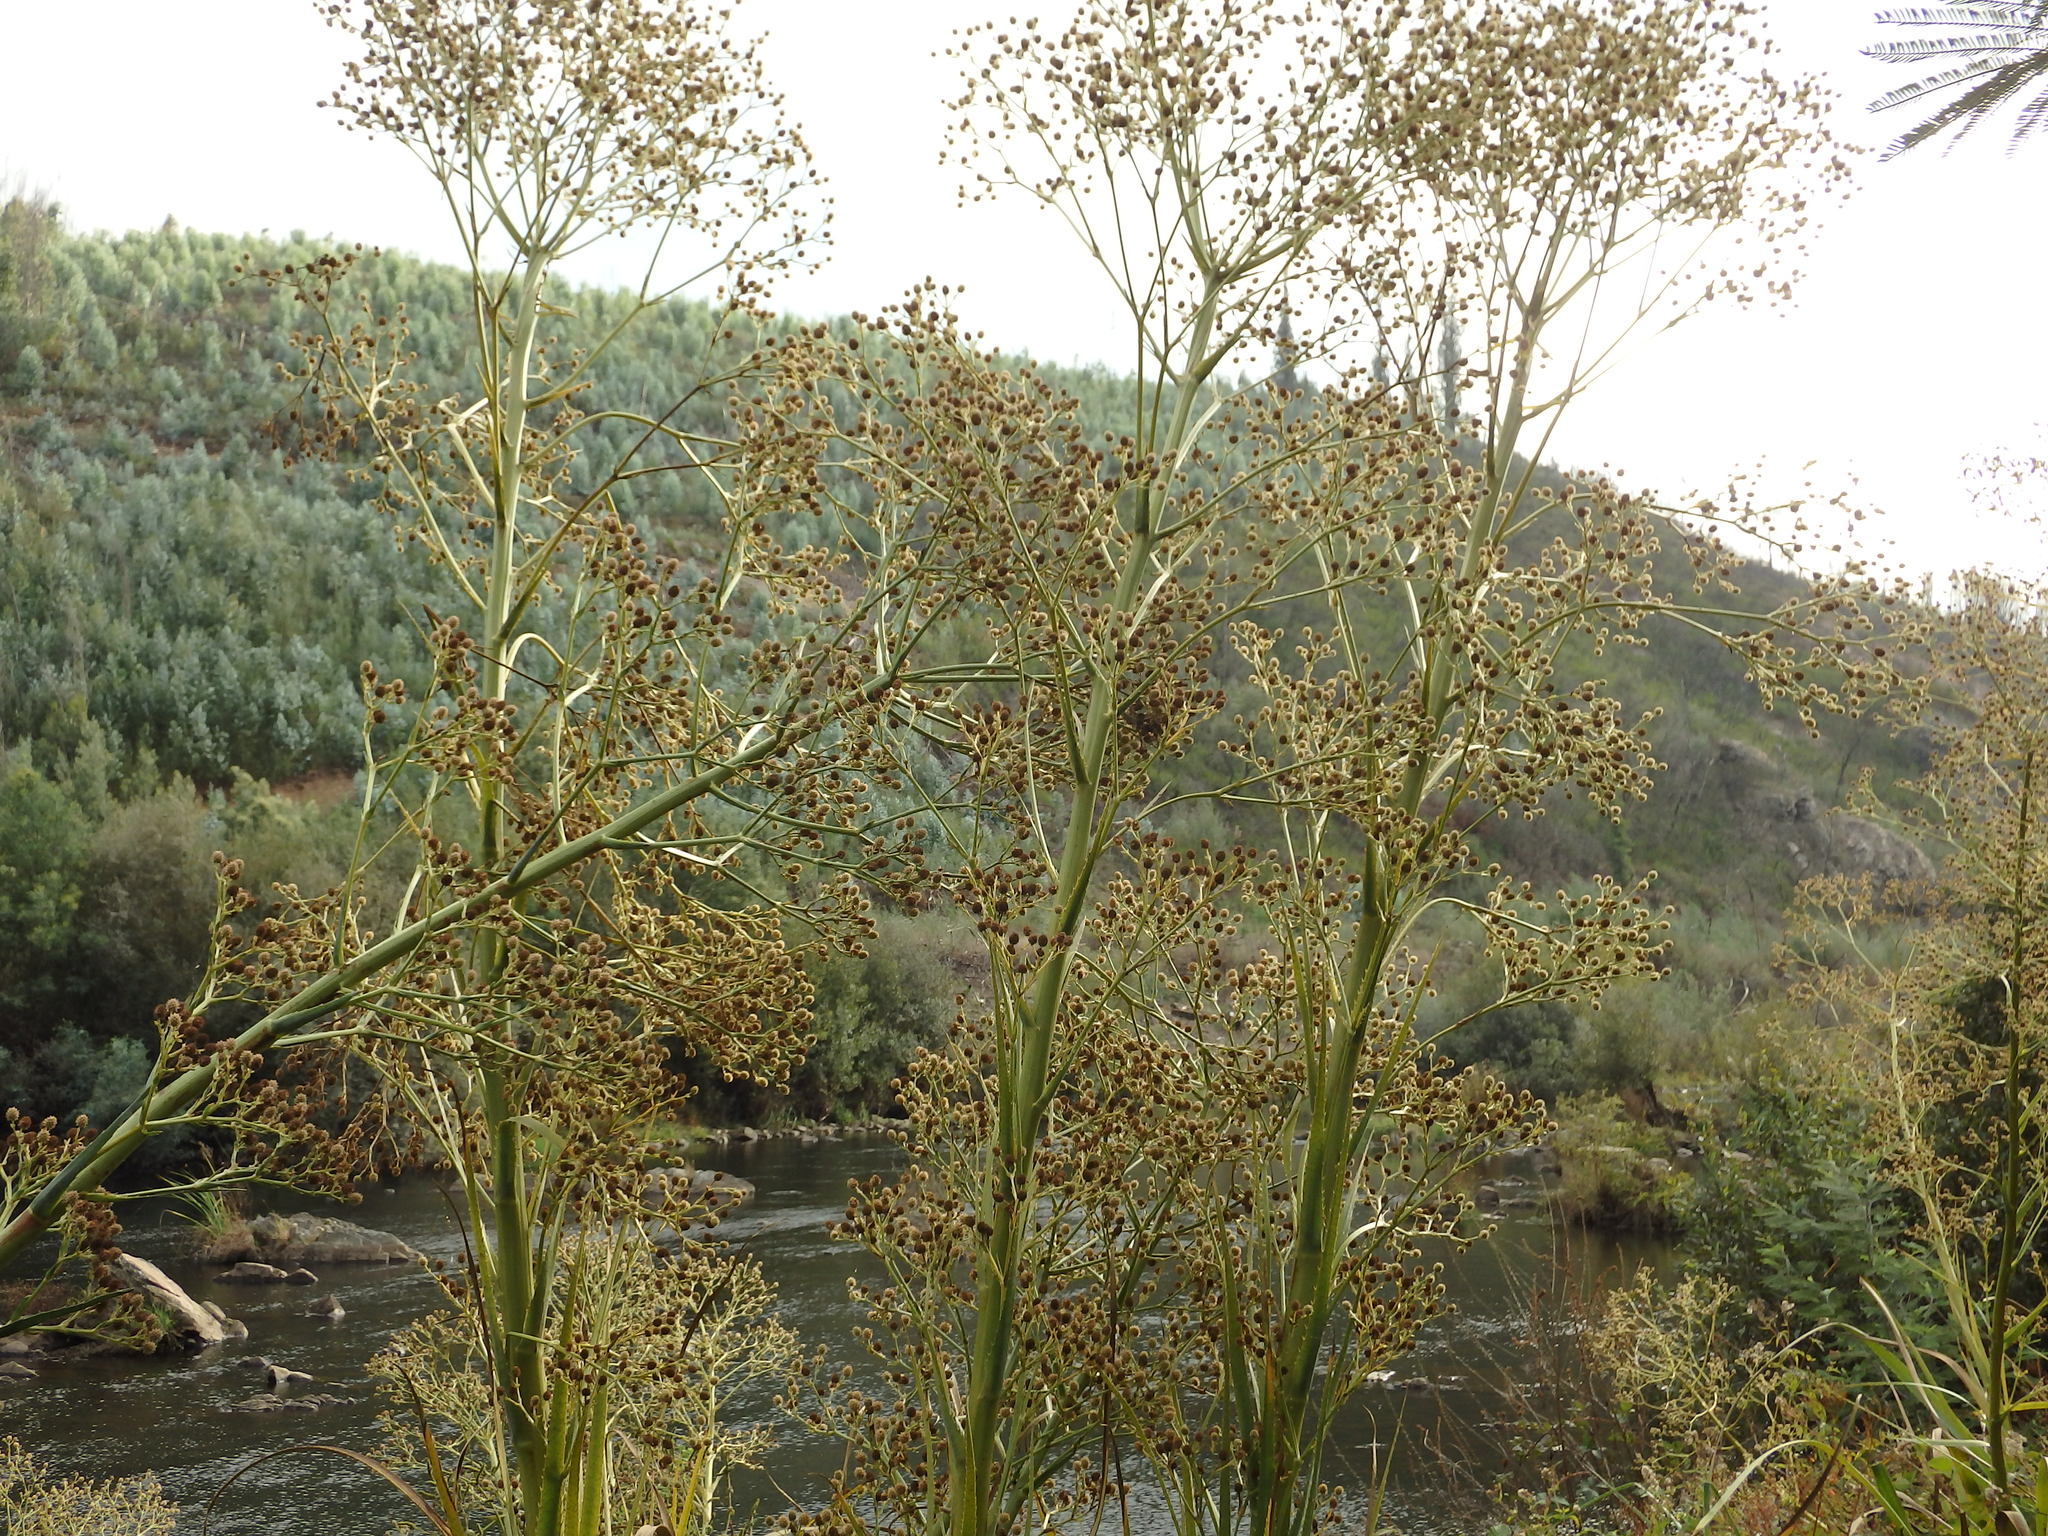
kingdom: Plantae
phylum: Tracheophyta
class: Magnoliopsida
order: Apiales
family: Apiaceae
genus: Eryngium
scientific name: Eryngium pandanifolium
